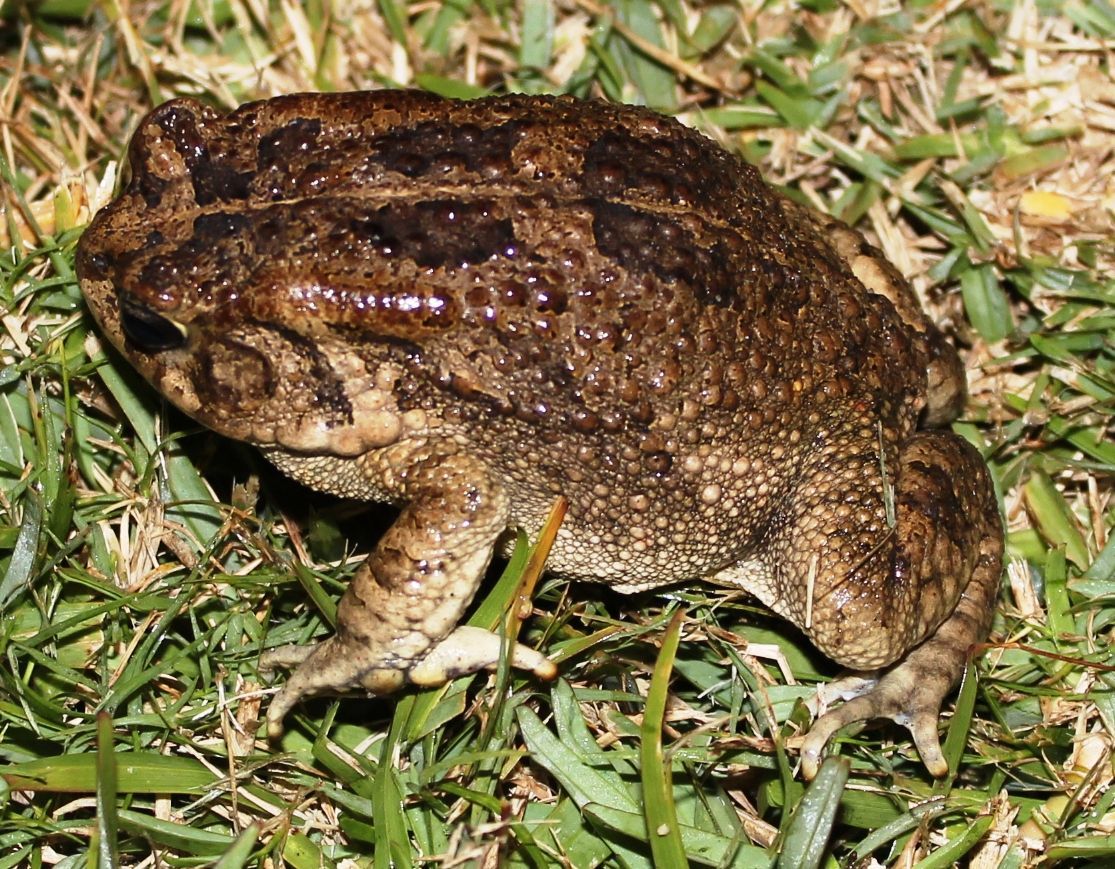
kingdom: Animalia
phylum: Chordata
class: Amphibia
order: Anura
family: Bufonidae
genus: Sclerophrys
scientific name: Sclerophrys gutturalis
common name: African common toad
